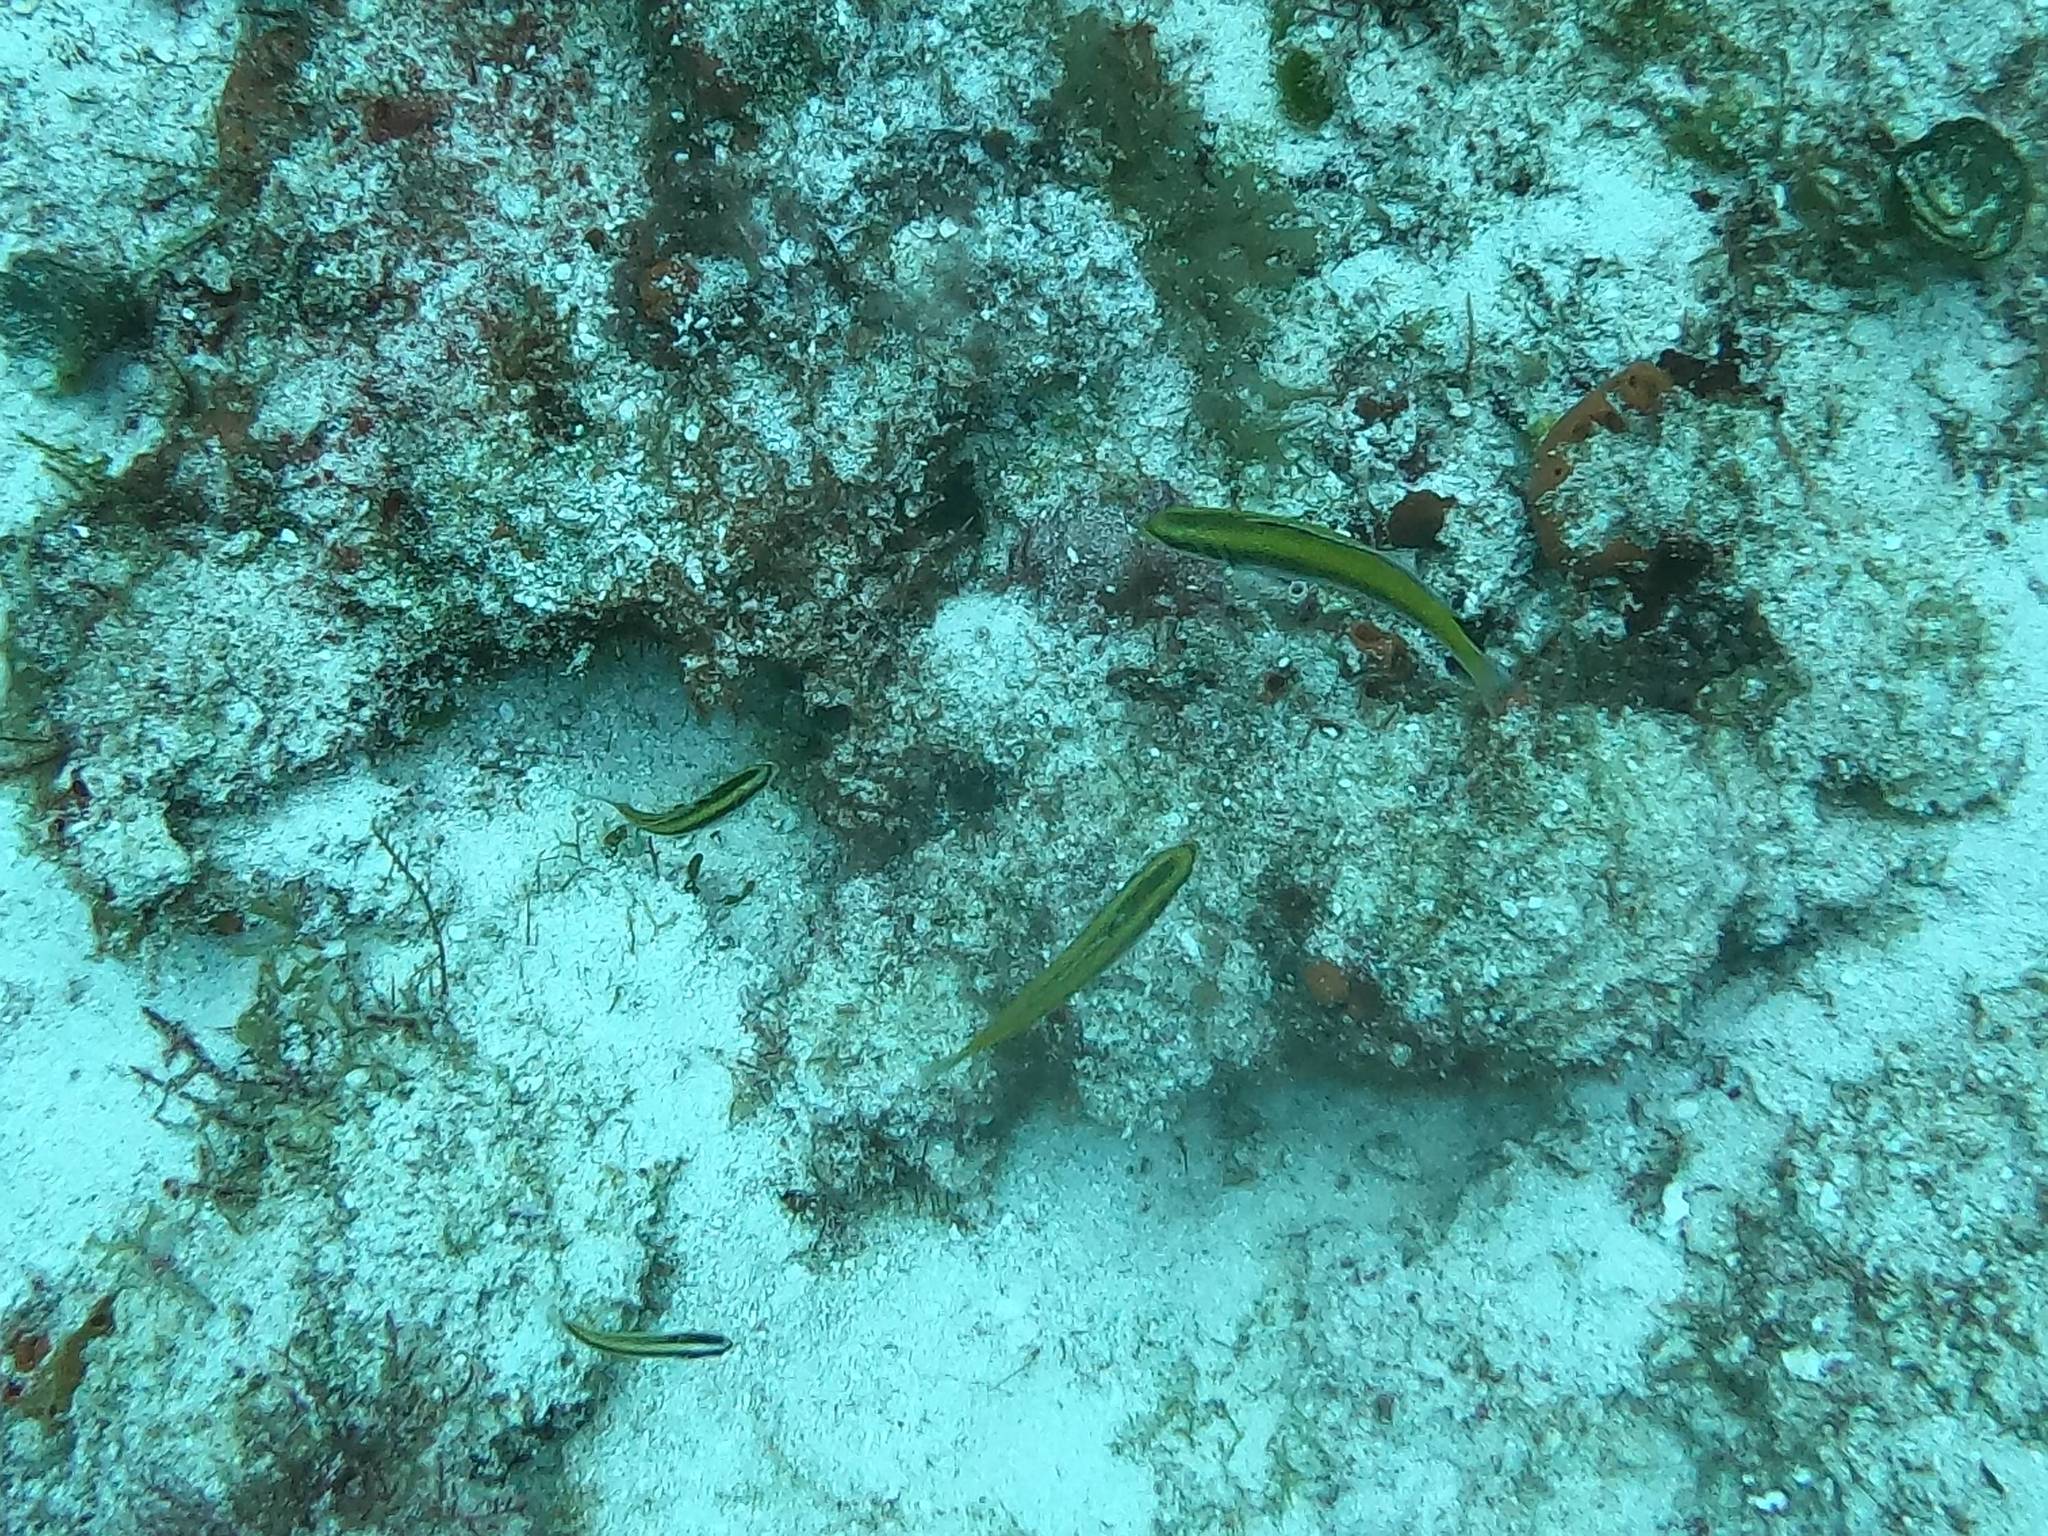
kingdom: Animalia
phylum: Chordata
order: Perciformes
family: Labridae
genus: Thalassoma
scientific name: Thalassoma bifasciatum
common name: Bluehead wrasse
